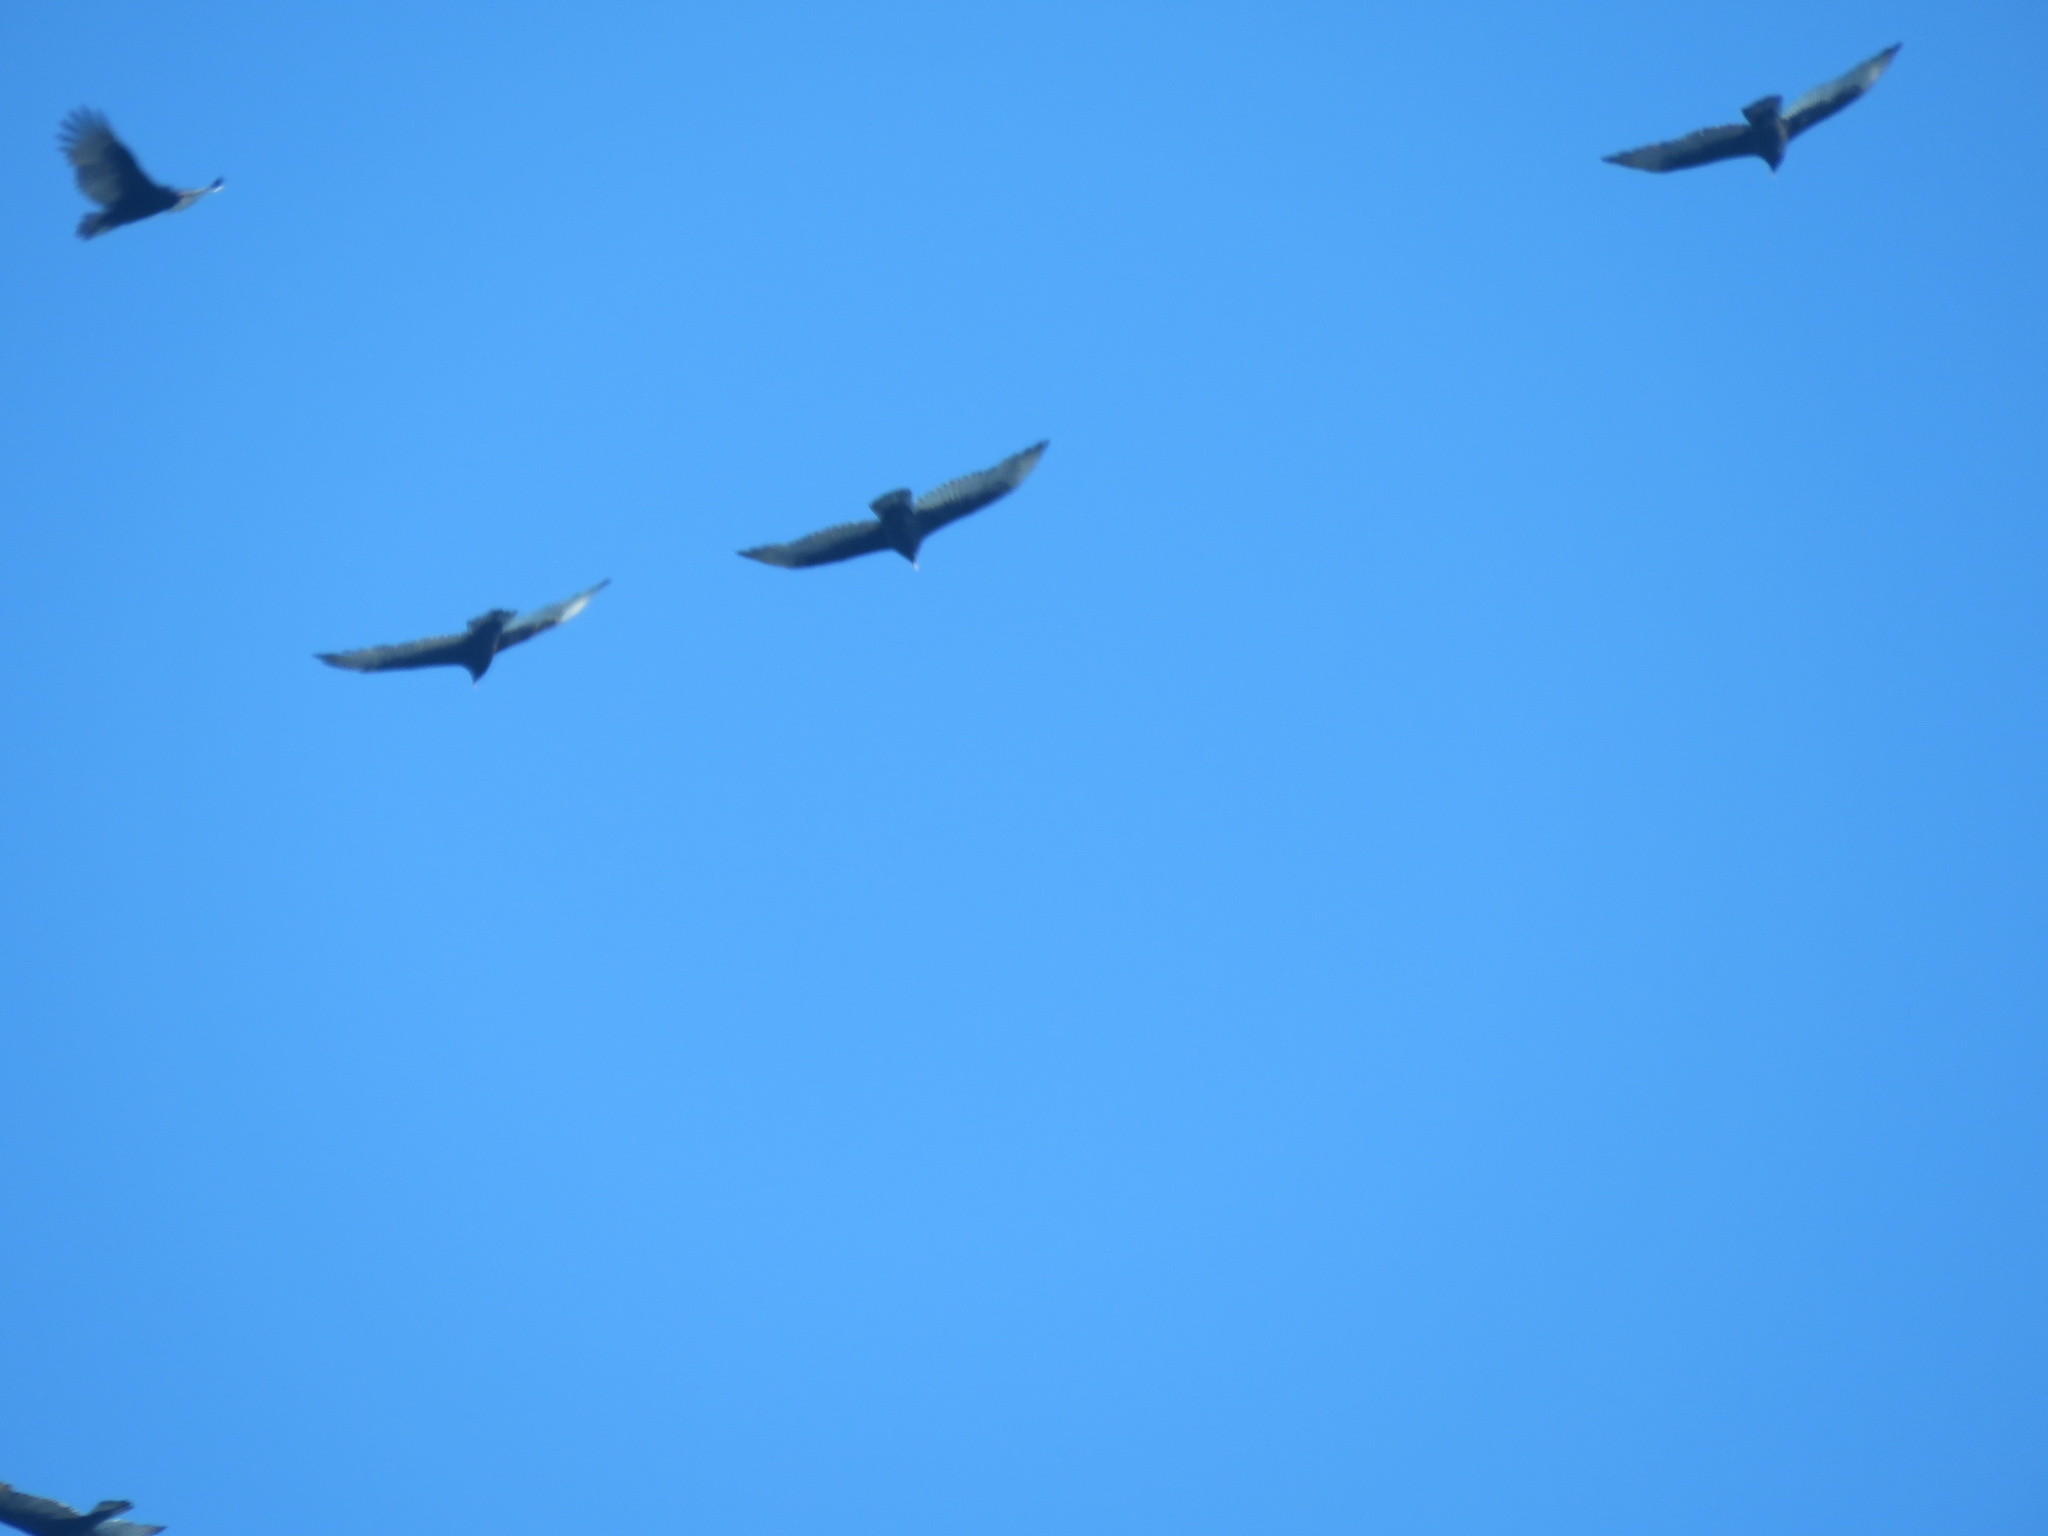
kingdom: Animalia
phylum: Chordata
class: Aves
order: Accipitriformes
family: Cathartidae
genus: Cathartes
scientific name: Cathartes aura
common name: Turkey vulture
